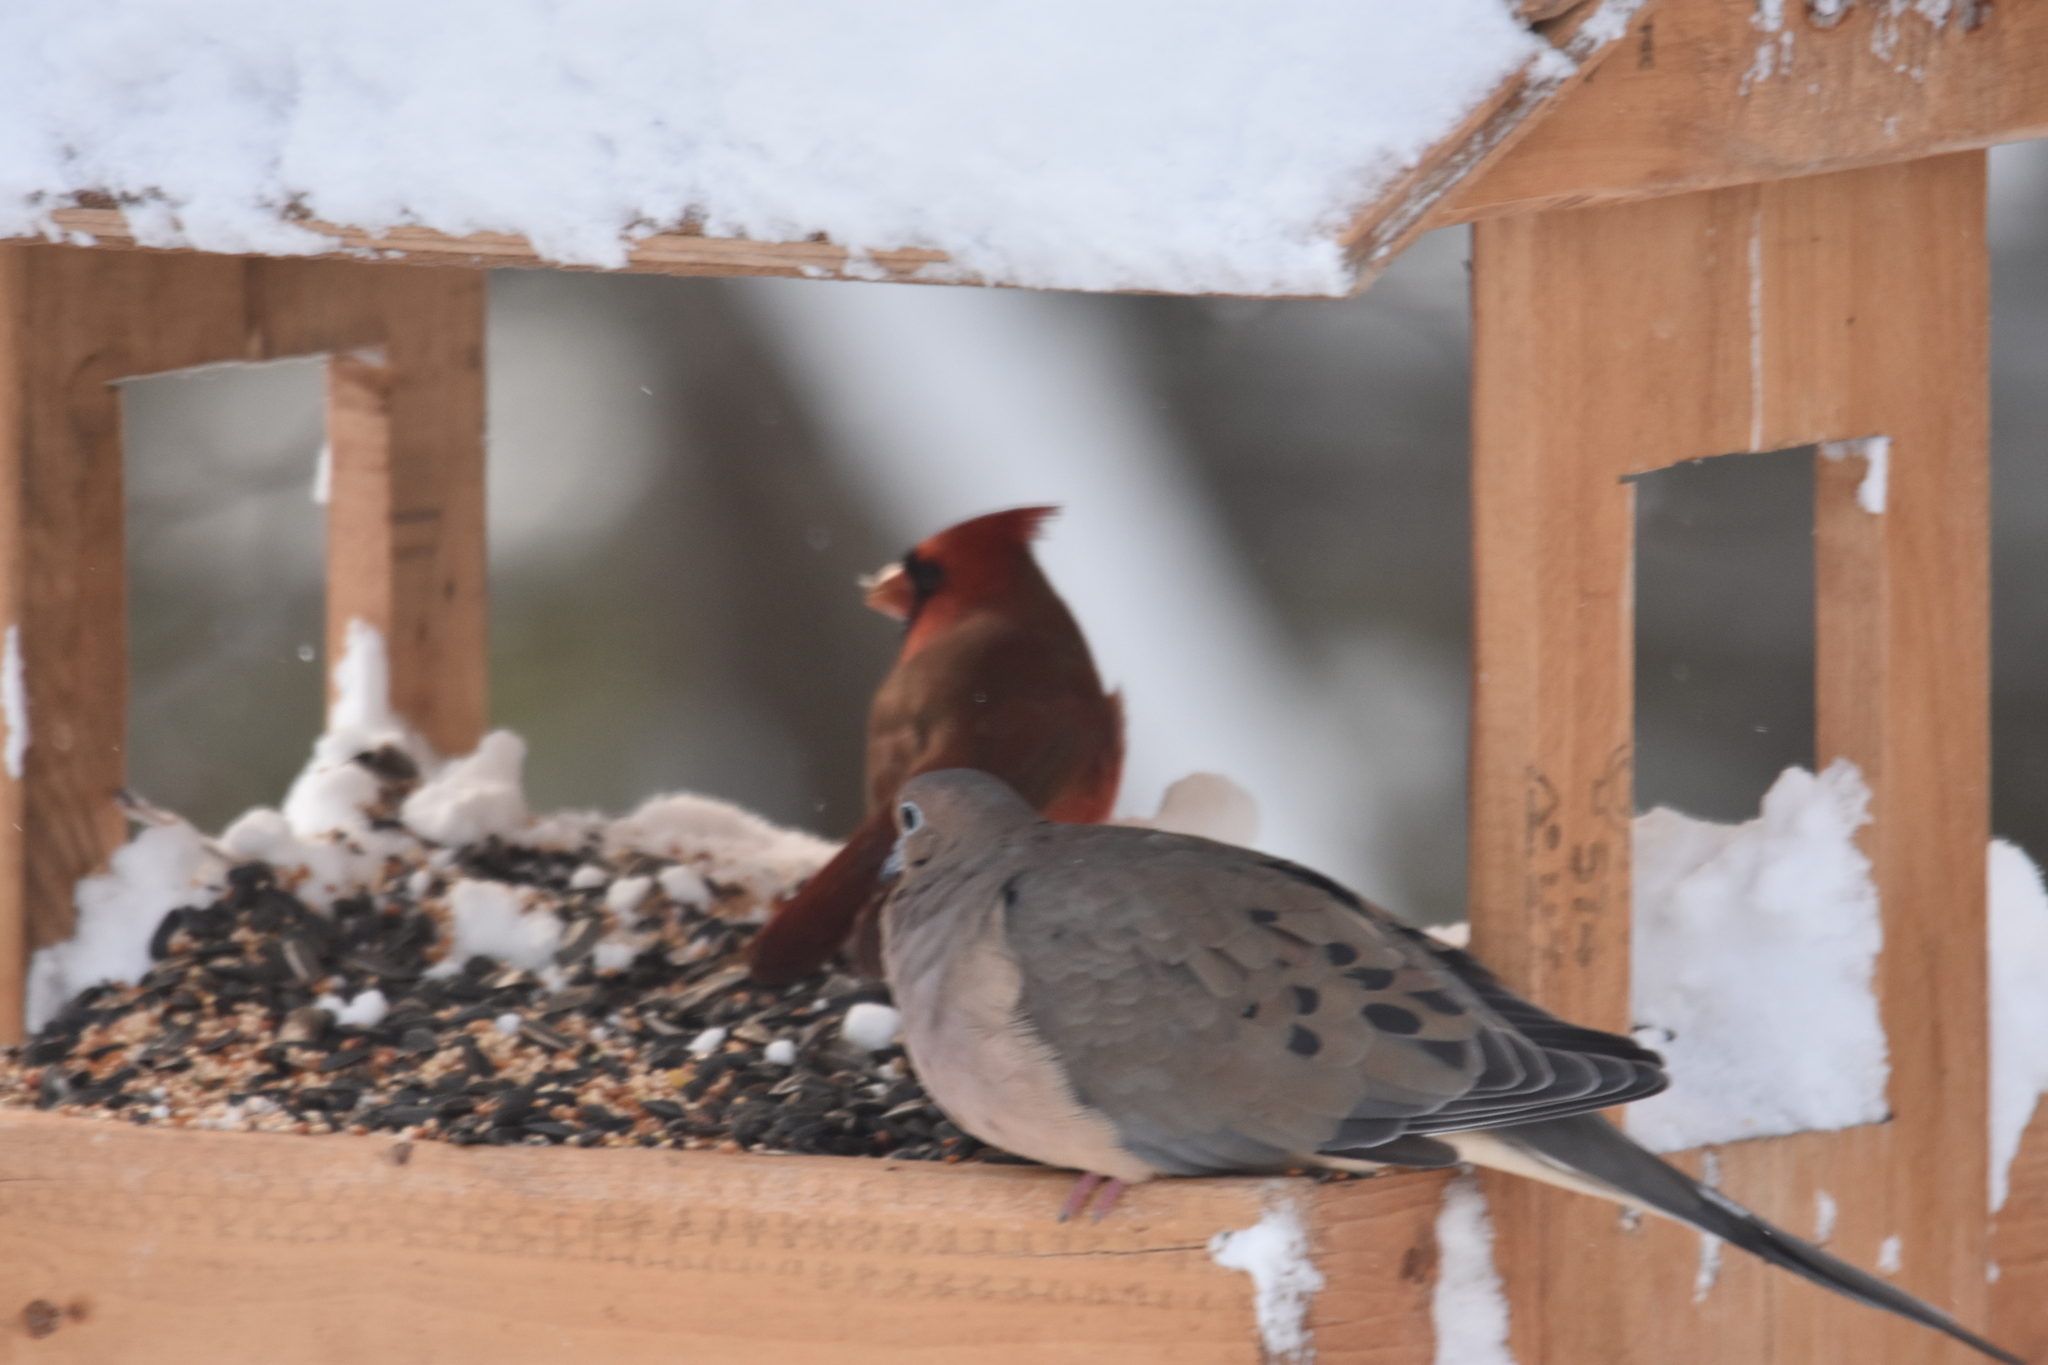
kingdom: Animalia
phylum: Chordata
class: Aves
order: Columbiformes
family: Columbidae
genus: Zenaida
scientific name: Zenaida macroura
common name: Mourning dove
